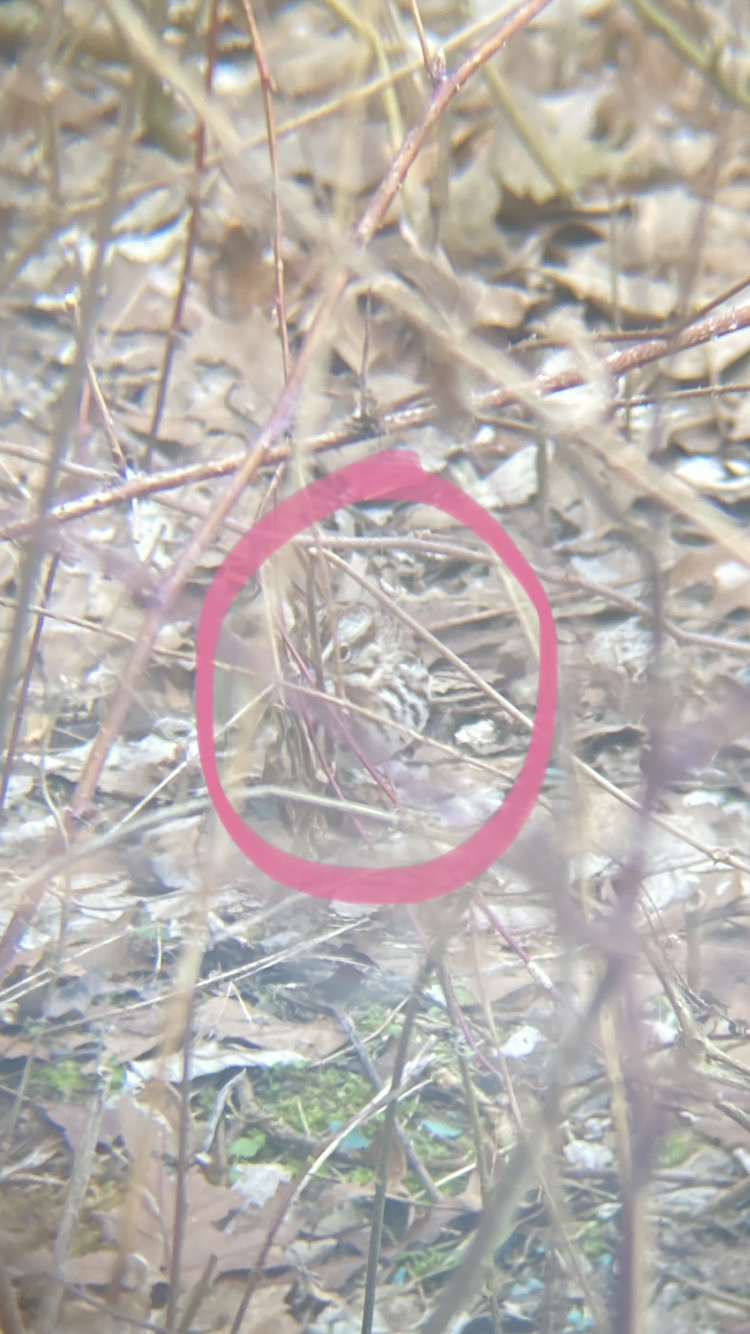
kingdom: Animalia
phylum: Chordata
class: Aves
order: Passeriformes
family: Passerellidae
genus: Melospiza
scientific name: Melospiza melodia
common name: Song sparrow
